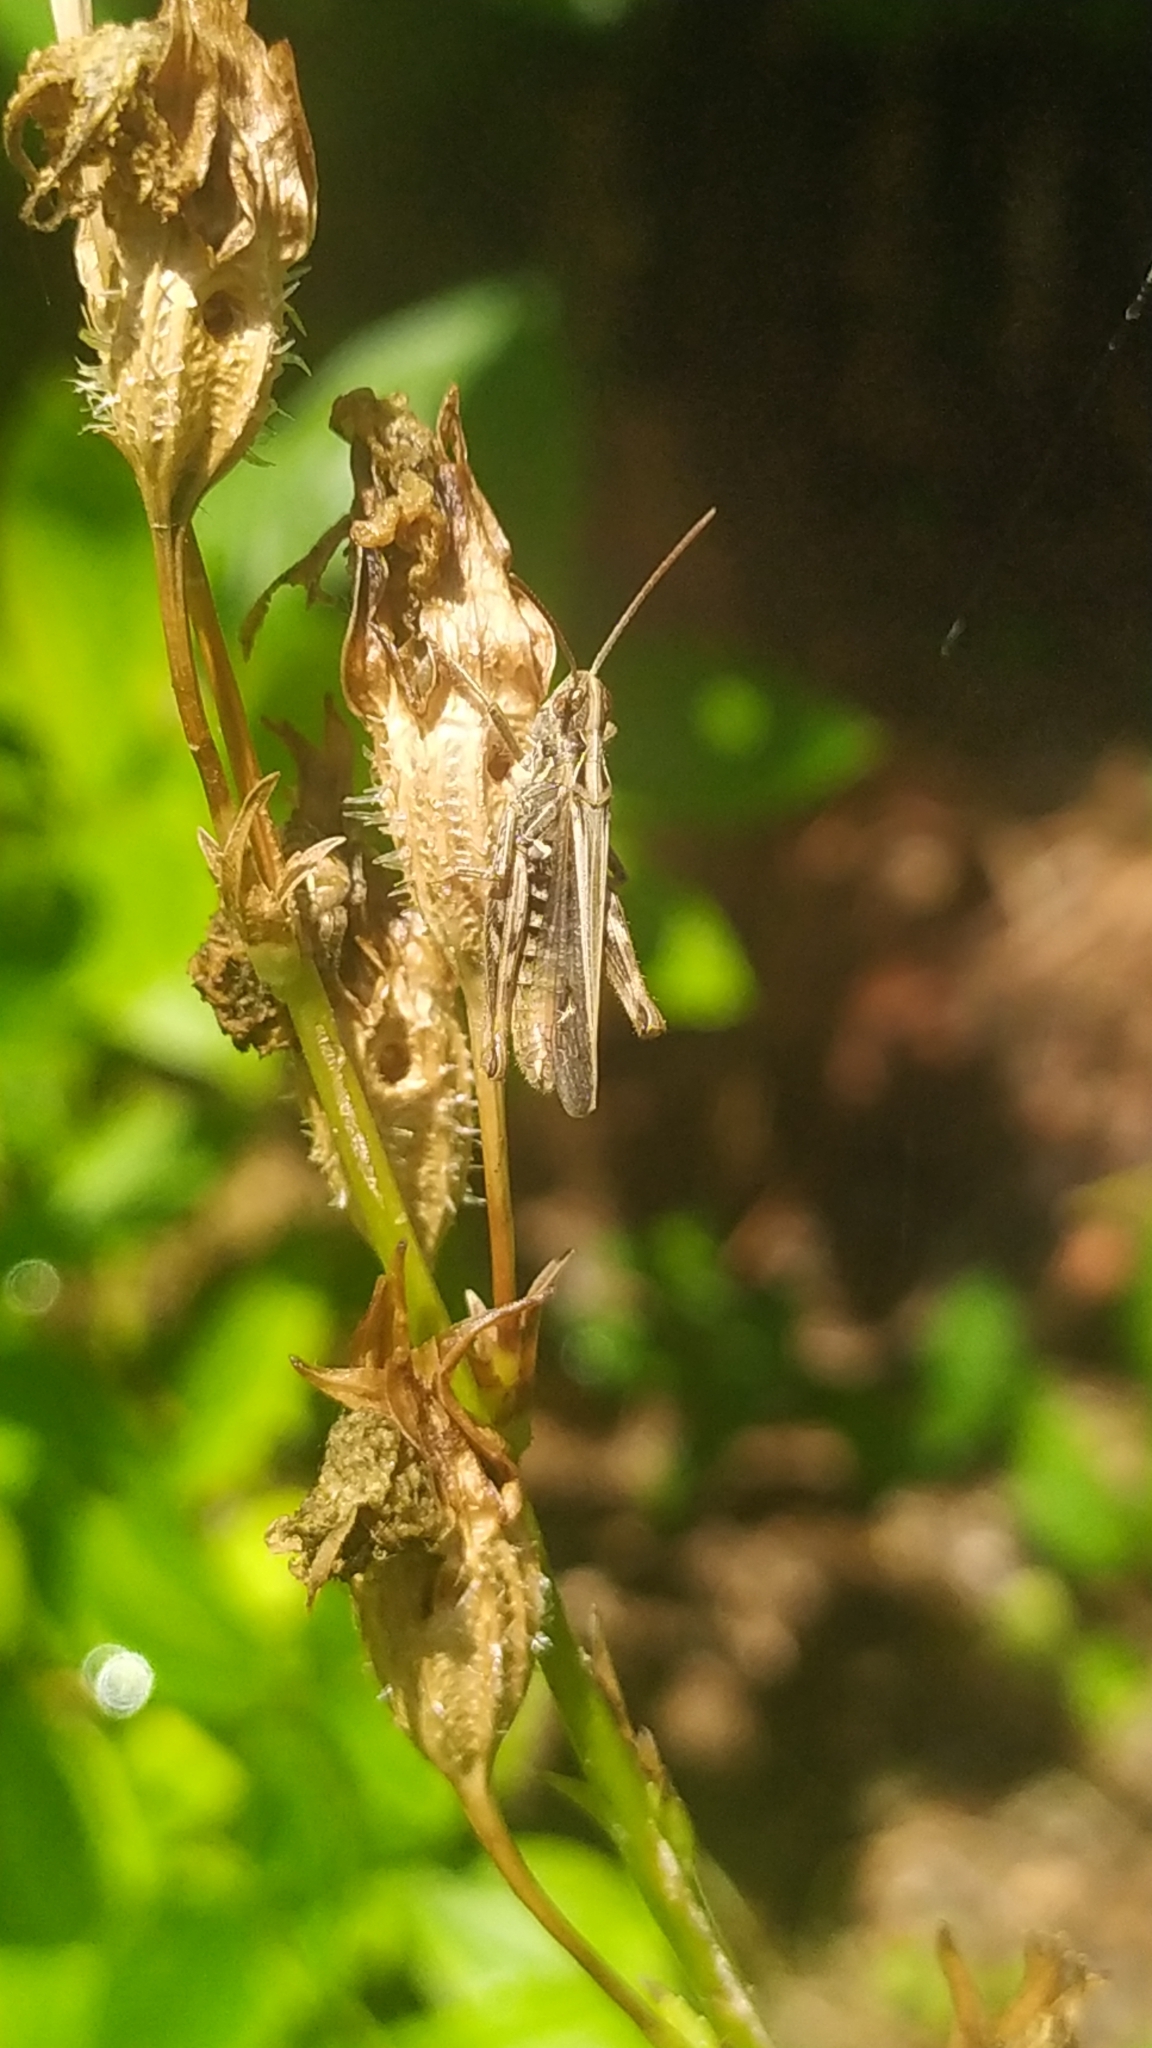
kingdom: Animalia
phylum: Arthropoda
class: Insecta
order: Orthoptera
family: Acrididae
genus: Chorthippus
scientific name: Chorthippus biguttulus
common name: Bow-winged grasshopper
